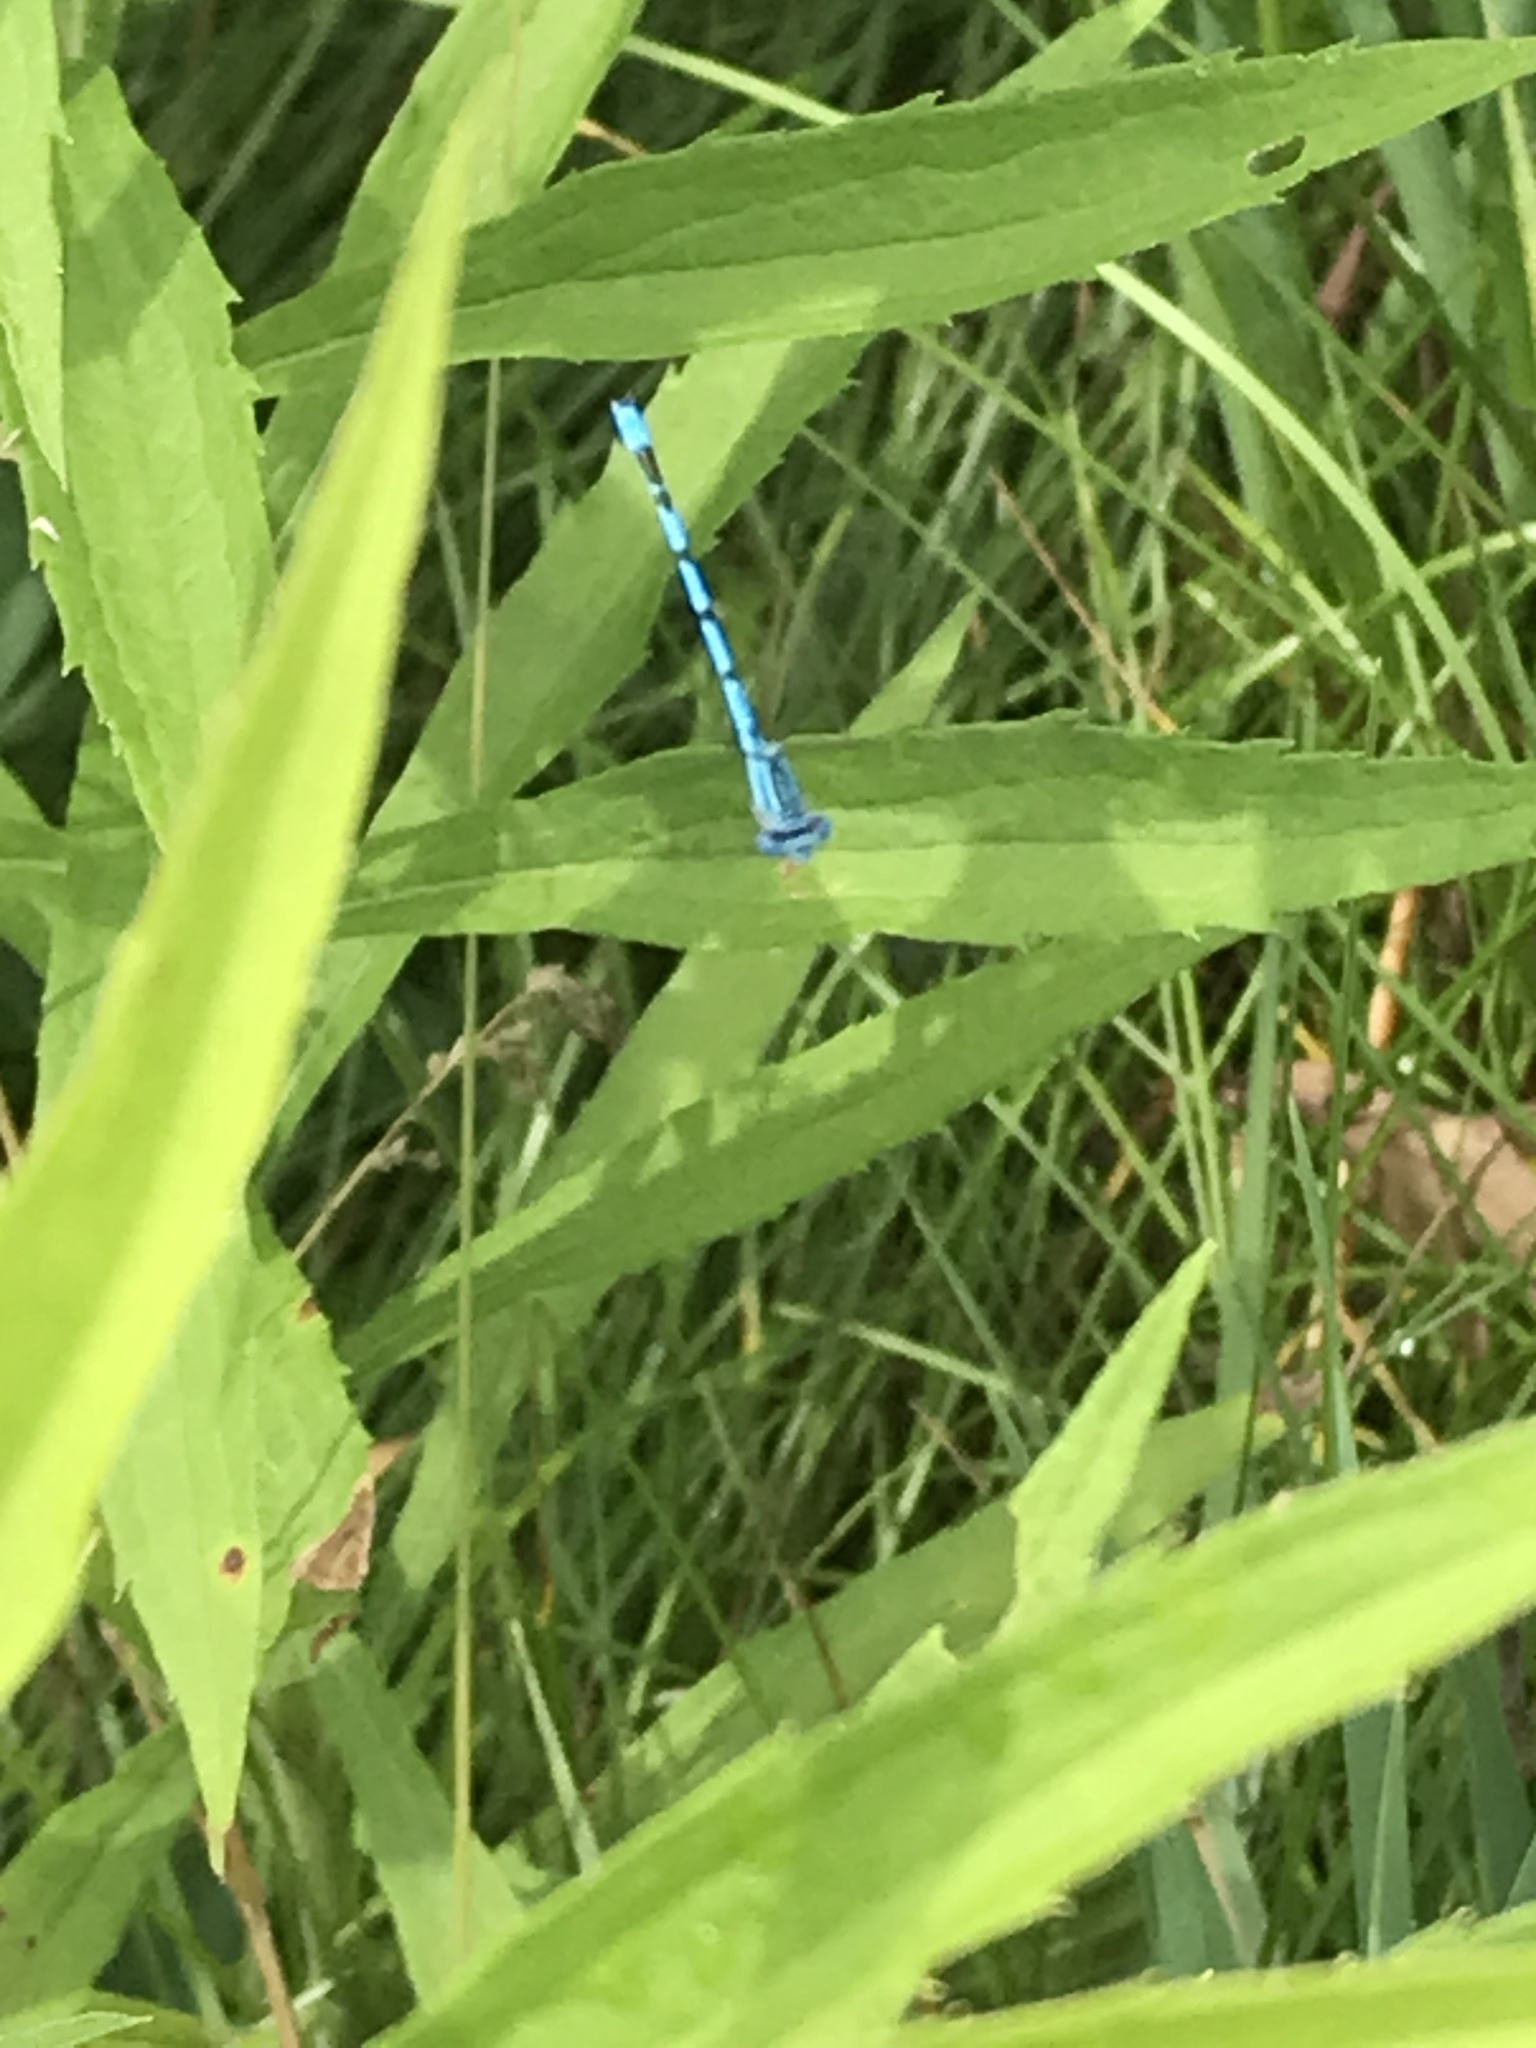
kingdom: Animalia
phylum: Arthropoda
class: Insecta
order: Odonata
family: Coenagrionidae
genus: Enallagma
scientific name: Enallagma basidens
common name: Double-striped bluet
